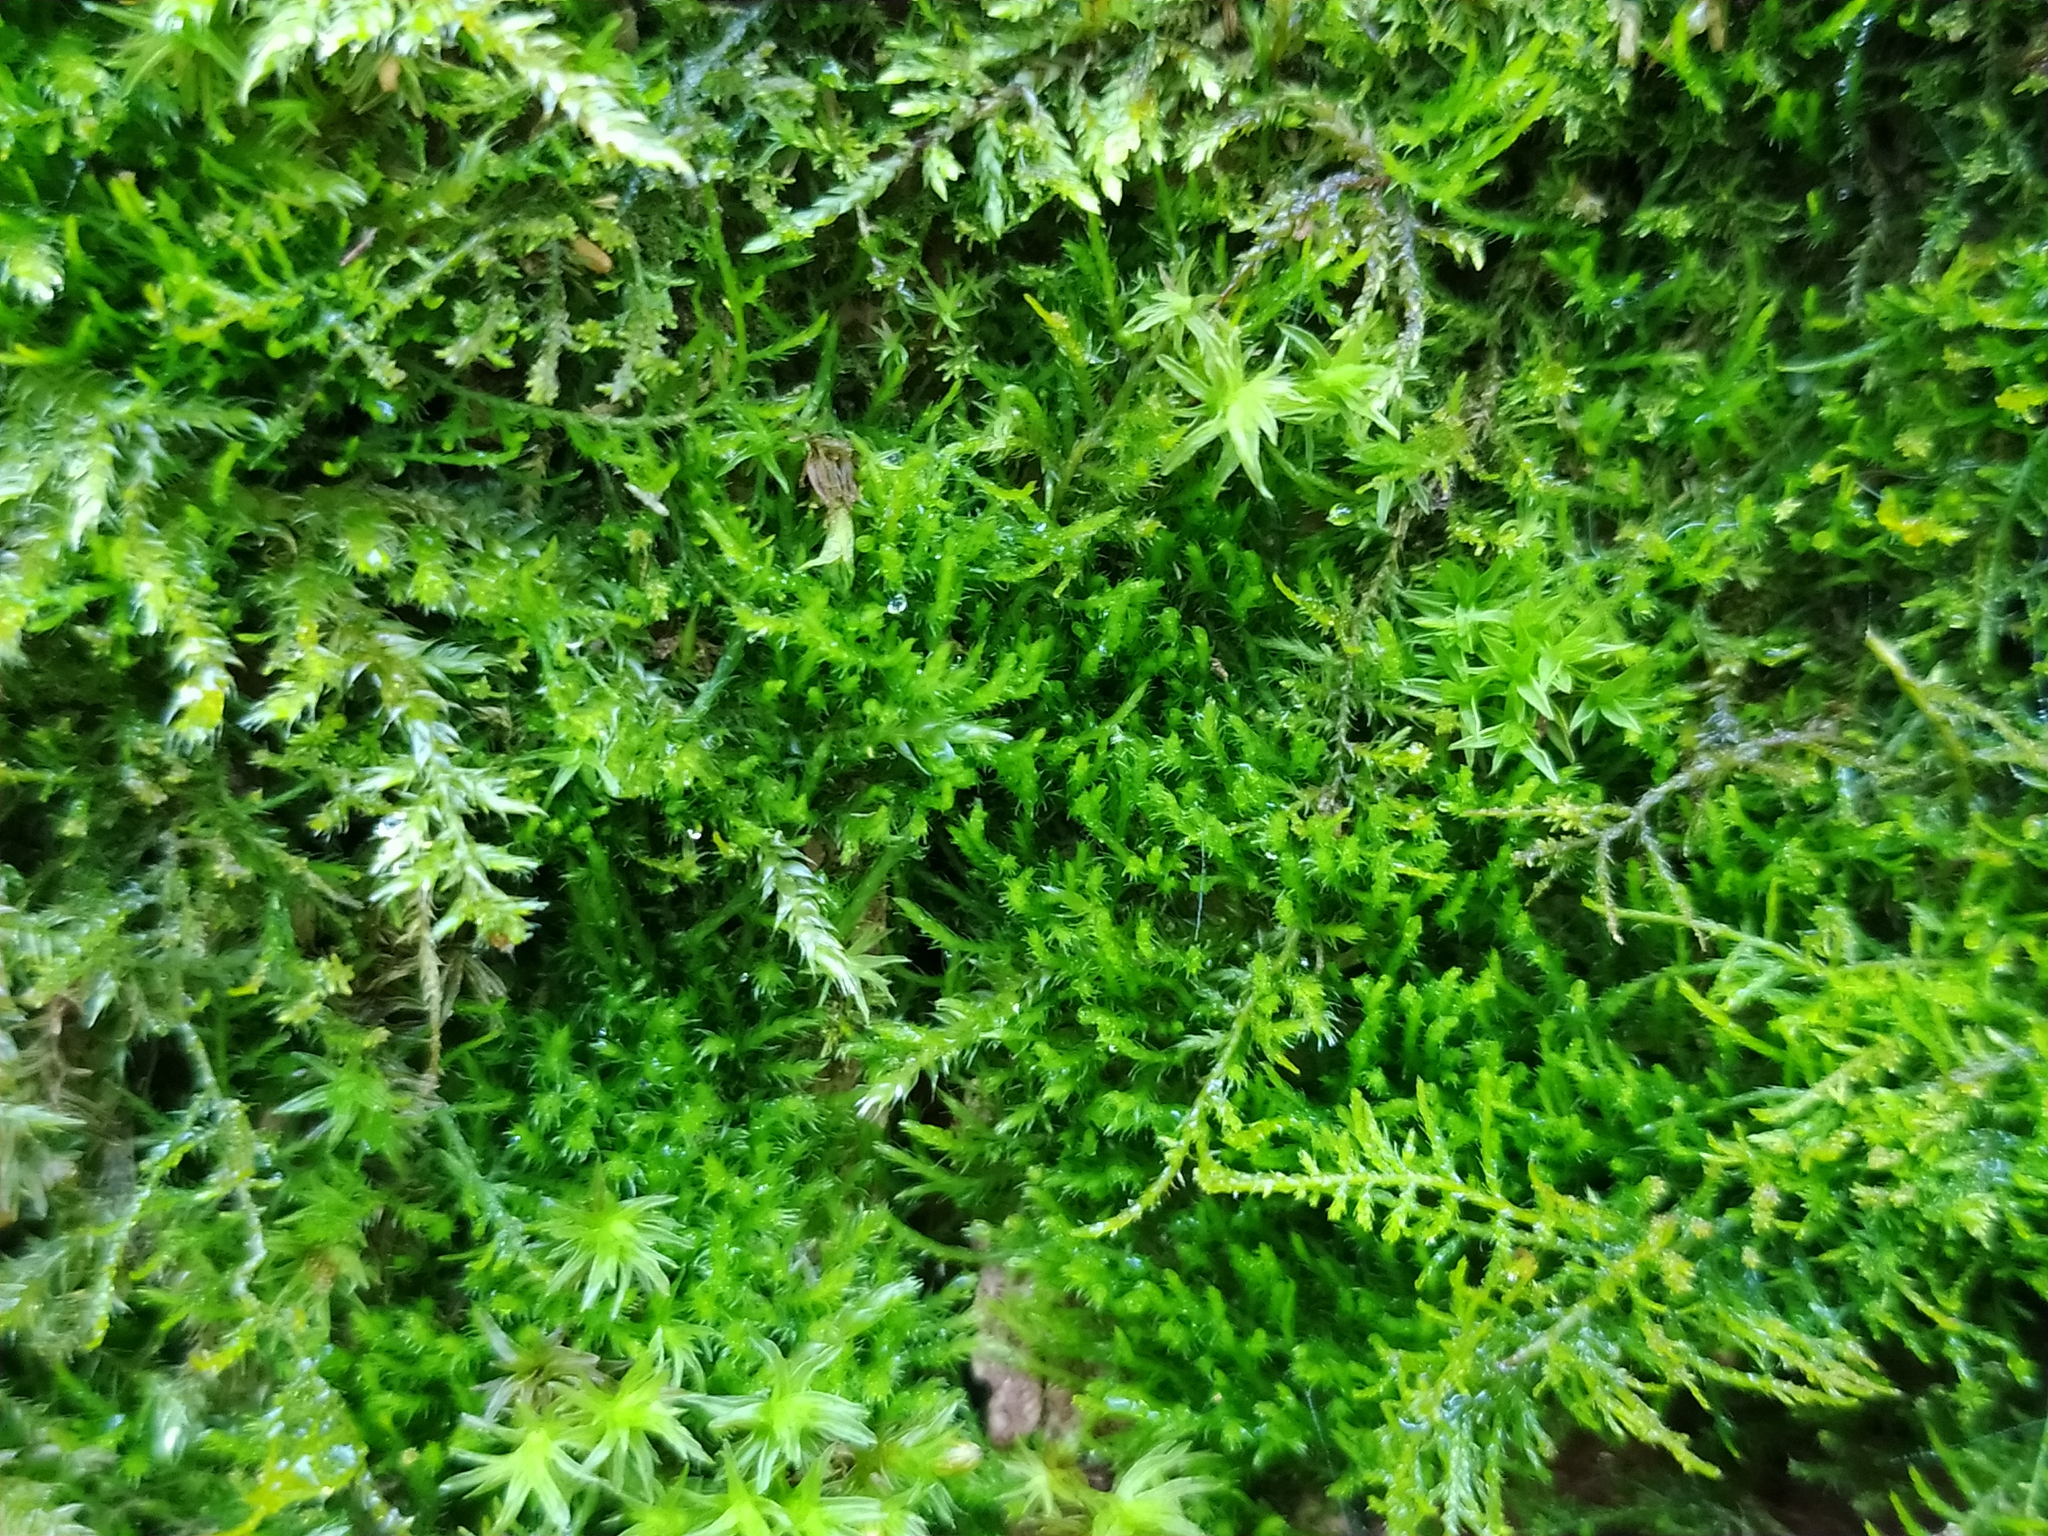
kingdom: Plantae
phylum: Bryophyta
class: Bryopsida
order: Hypnales
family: Pseudoleskeellaceae
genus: Pseudoleskeella
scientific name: Pseudoleskeella nervosa
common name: Nerved leske's moss
